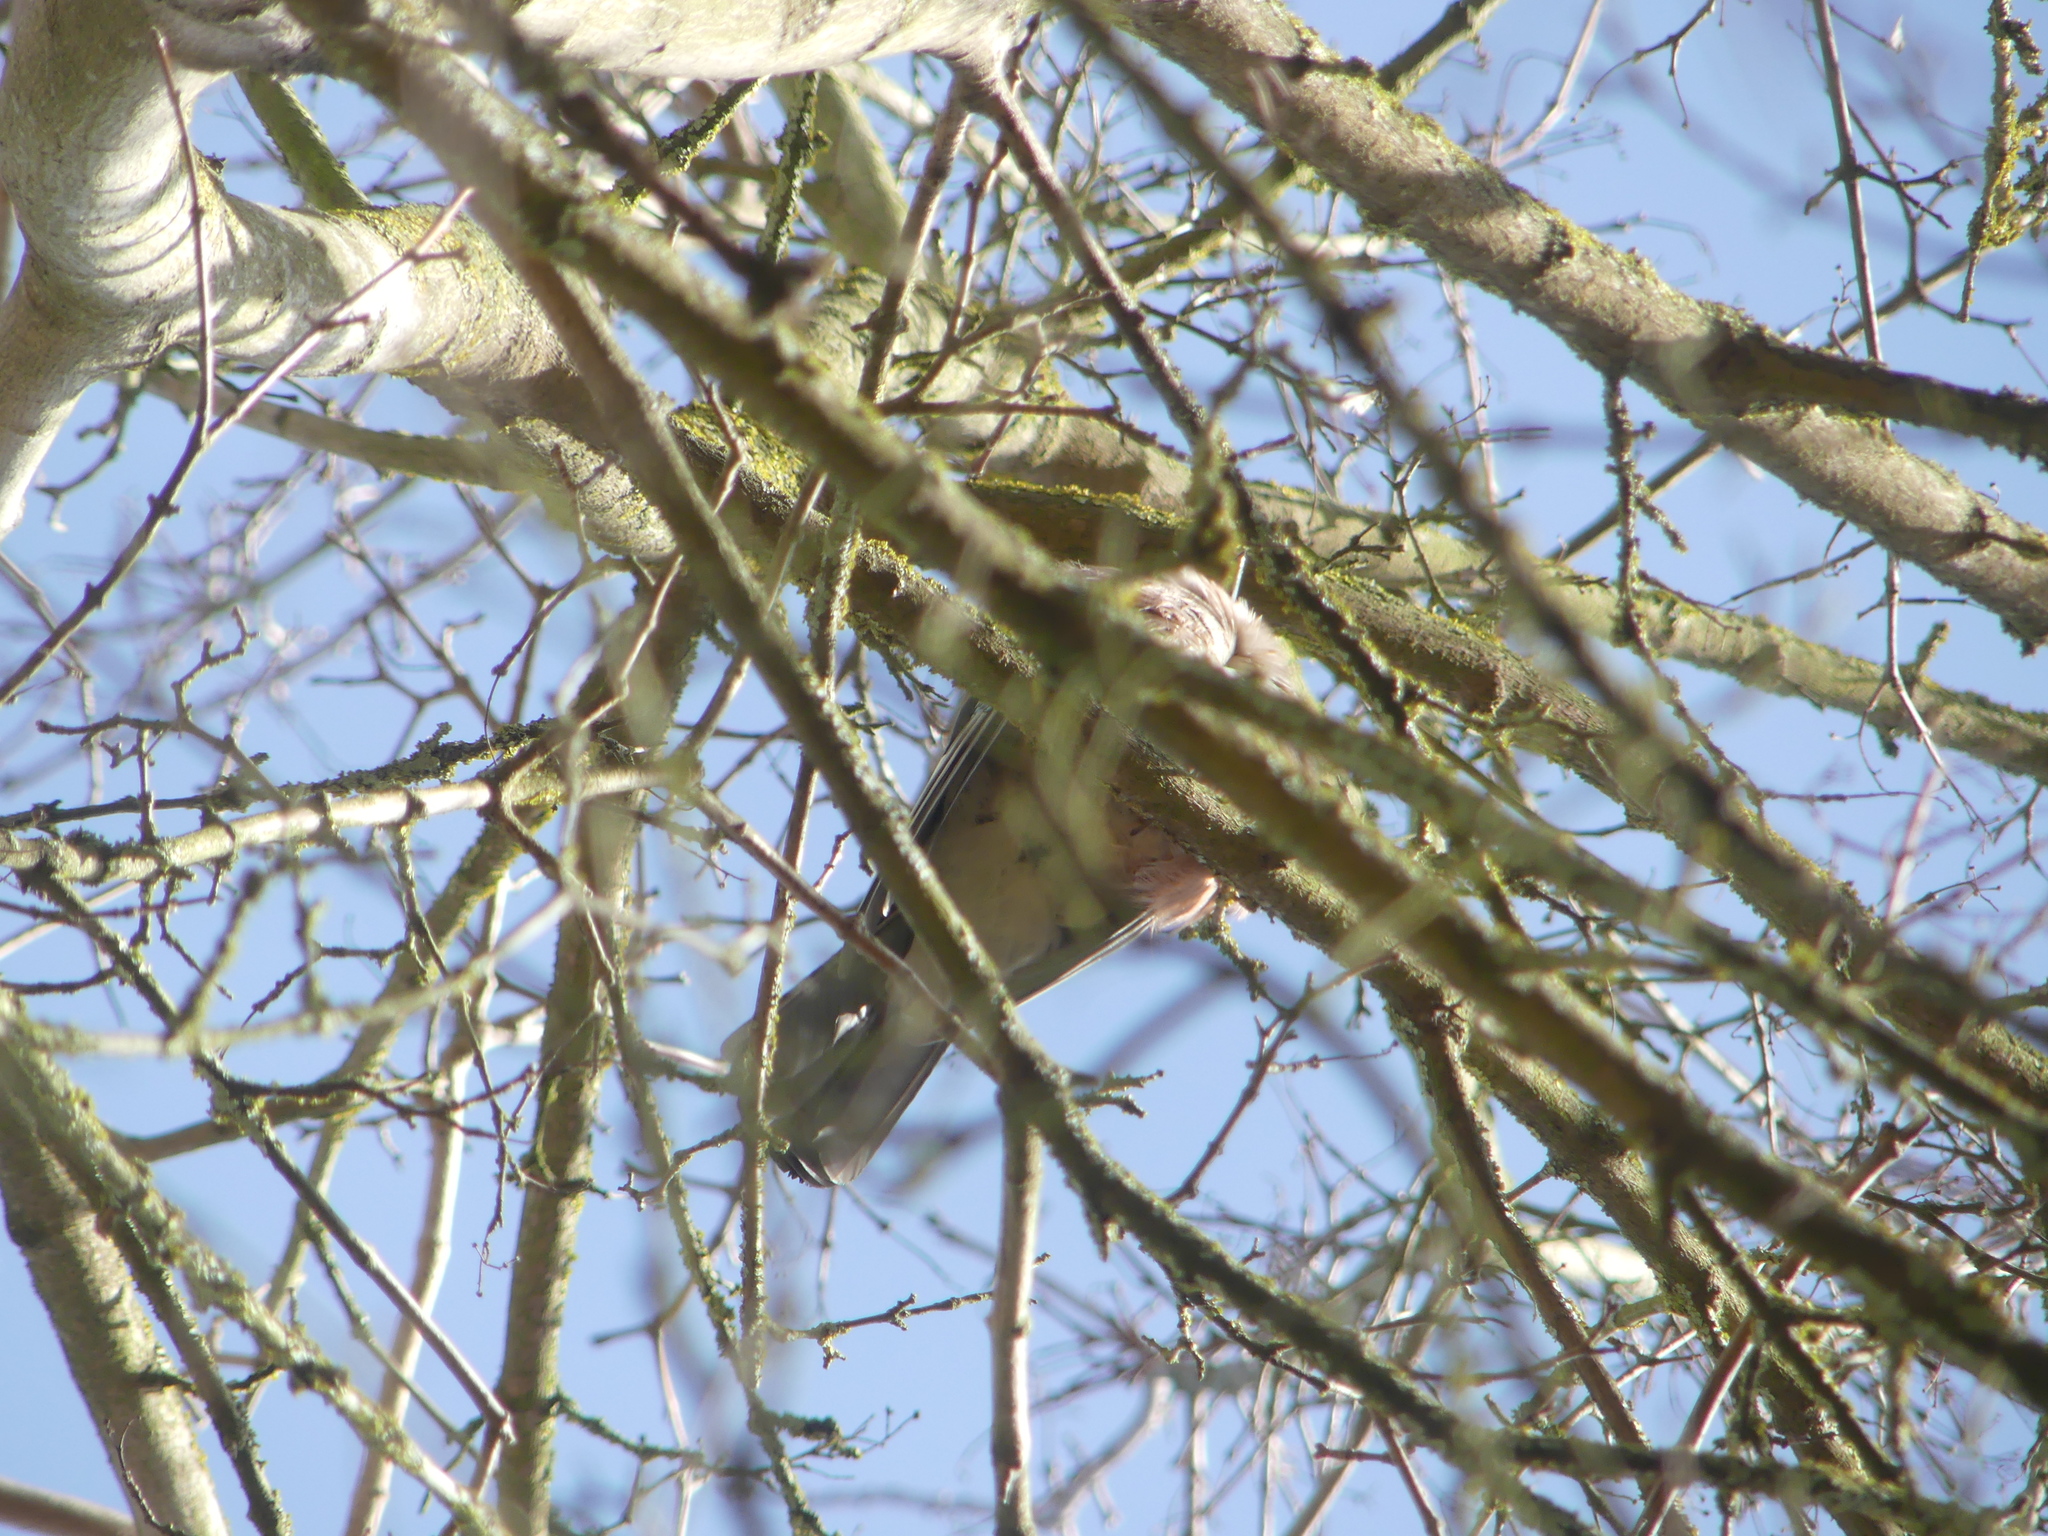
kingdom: Animalia
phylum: Chordata
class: Aves
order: Passeriformes
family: Corvidae
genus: Garrulus
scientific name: Garrulus glandarius
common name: Eurasian jay
